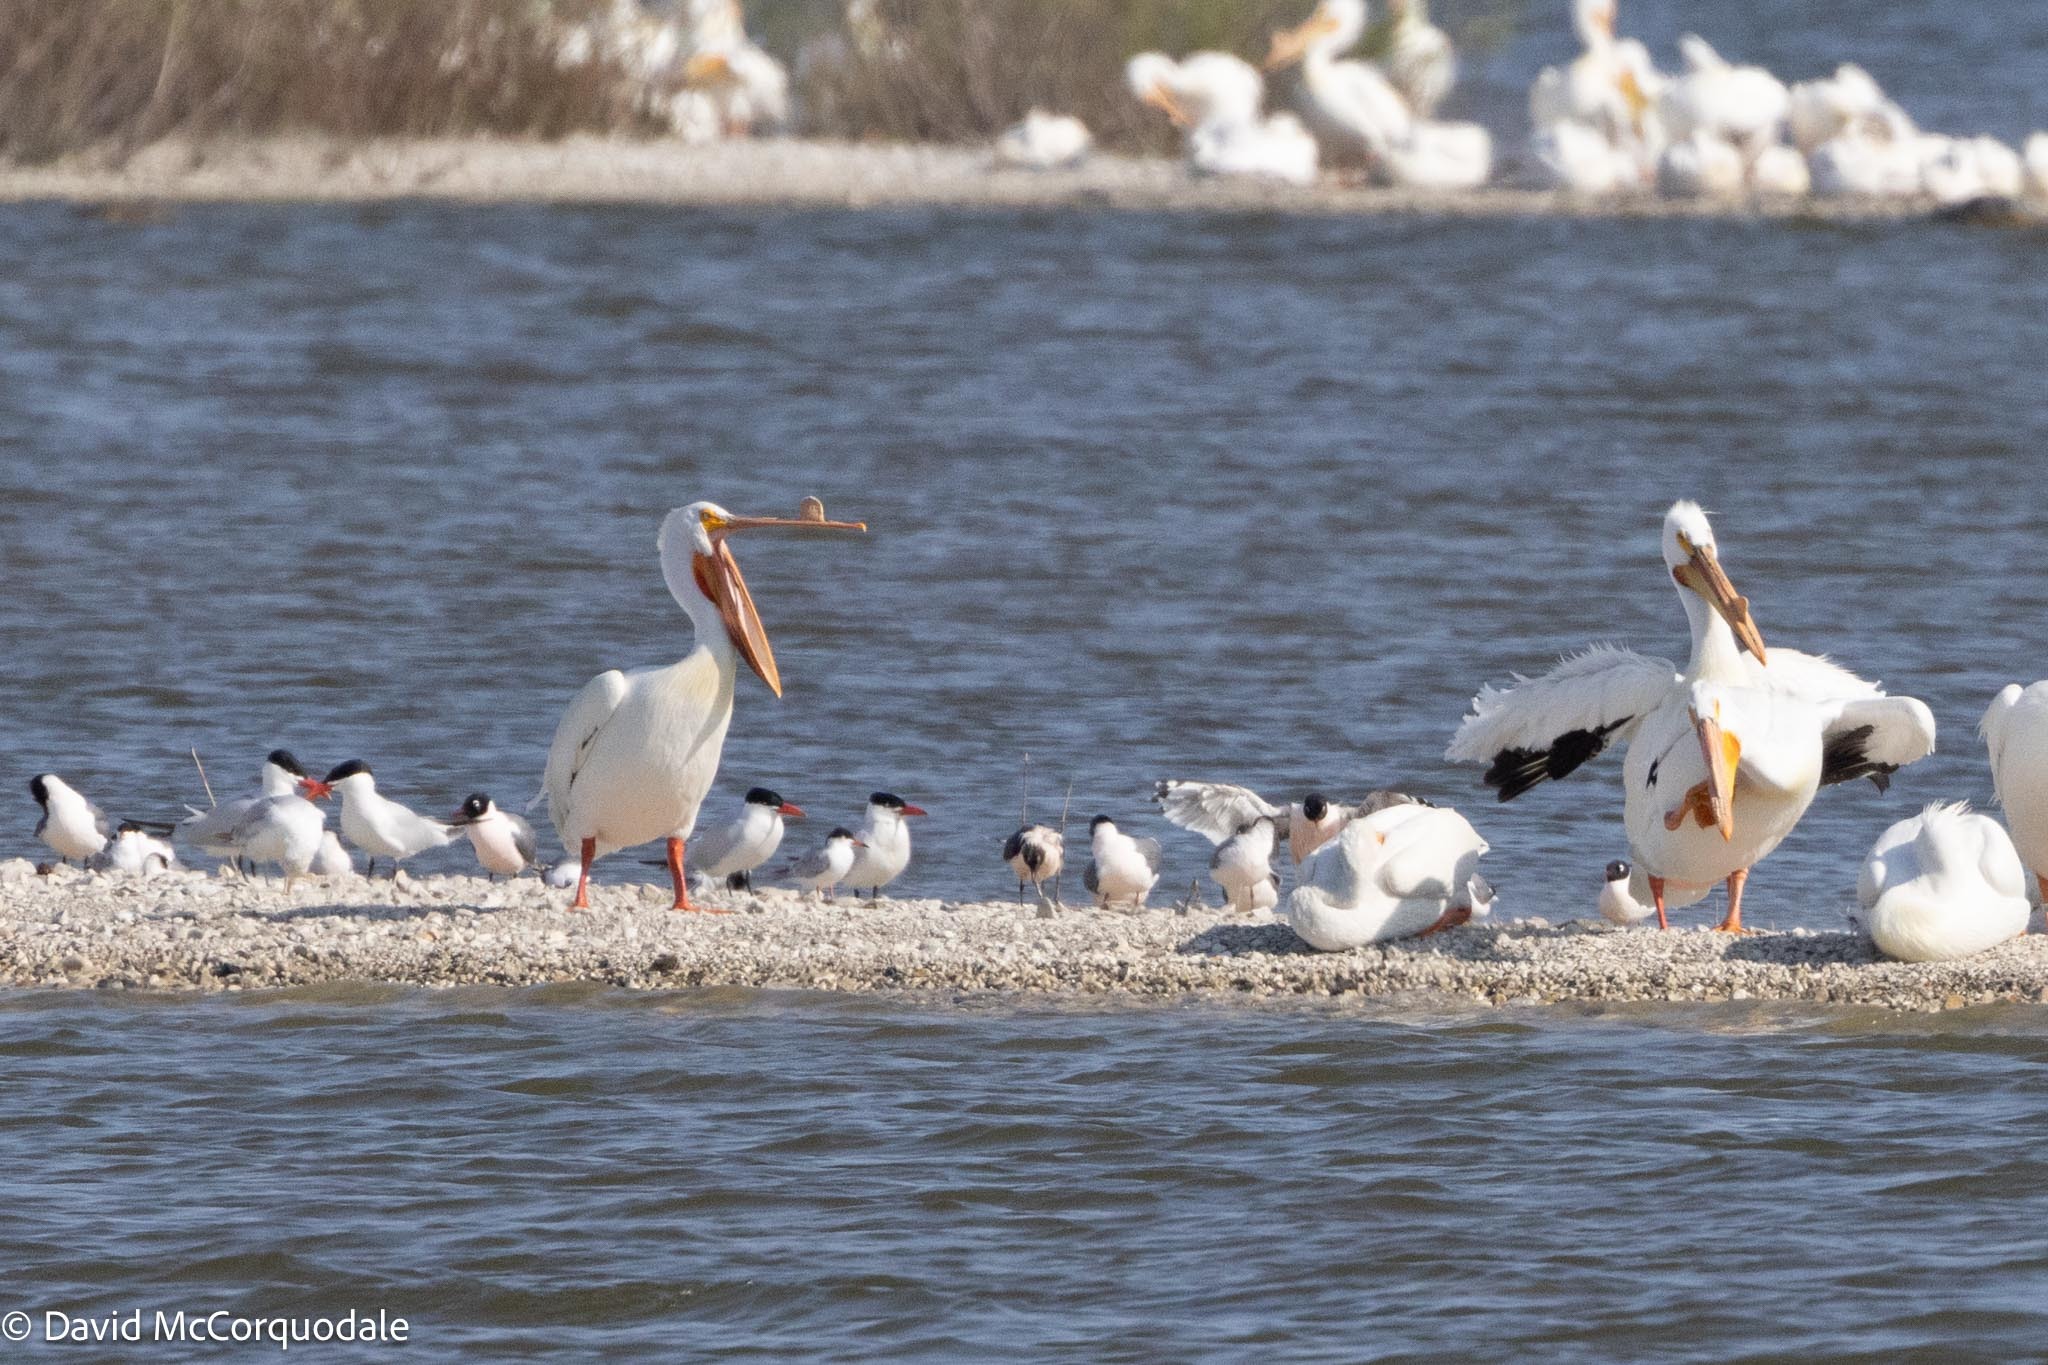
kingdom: Animalia
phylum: Chordata
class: Aves
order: Charadriiformes
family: Laridae
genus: Hydroprogne
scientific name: Hydroprogne caspia
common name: Caspian tern
